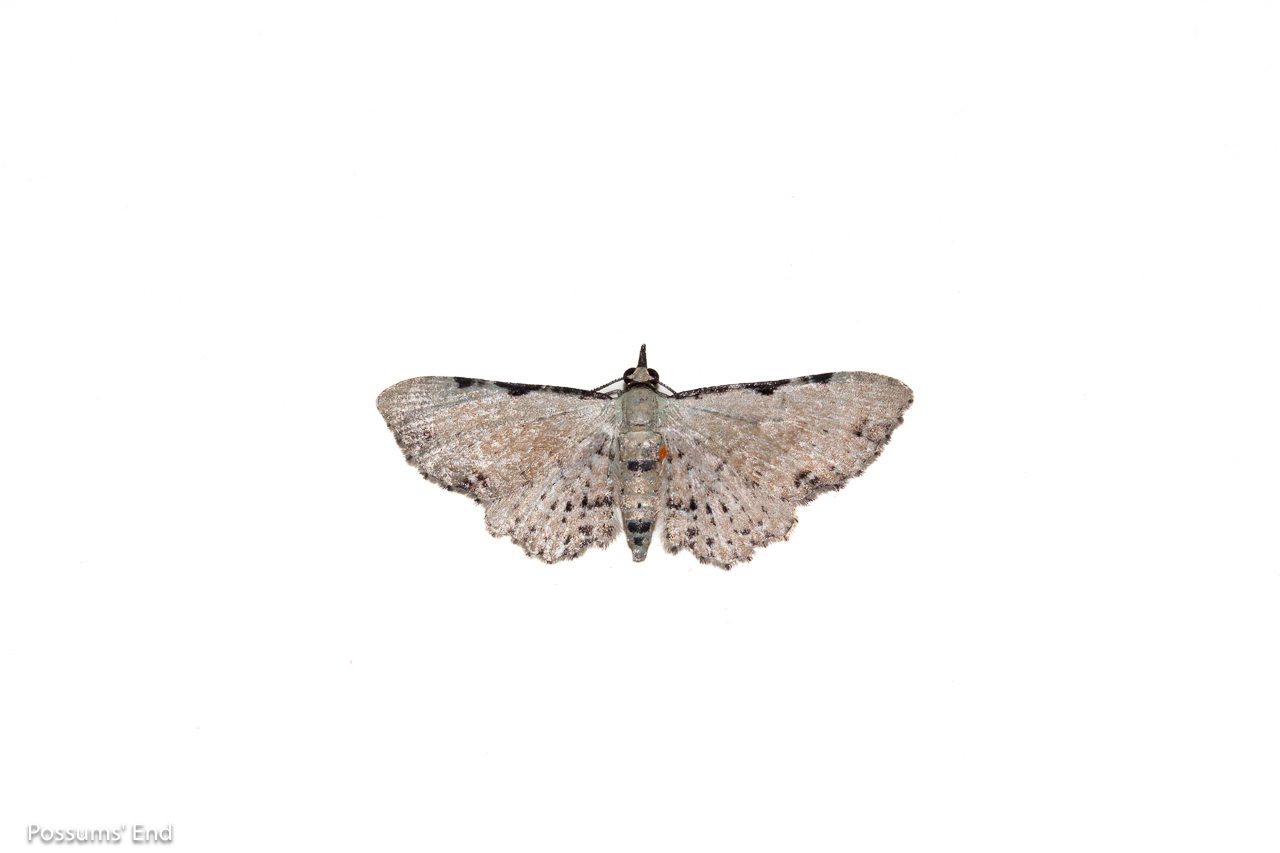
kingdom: Animalia
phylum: Arthropoda
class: Insecta
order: Lepidoptera
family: Geometridae
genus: Pasiphila
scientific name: Pasiphila fumipalpata
